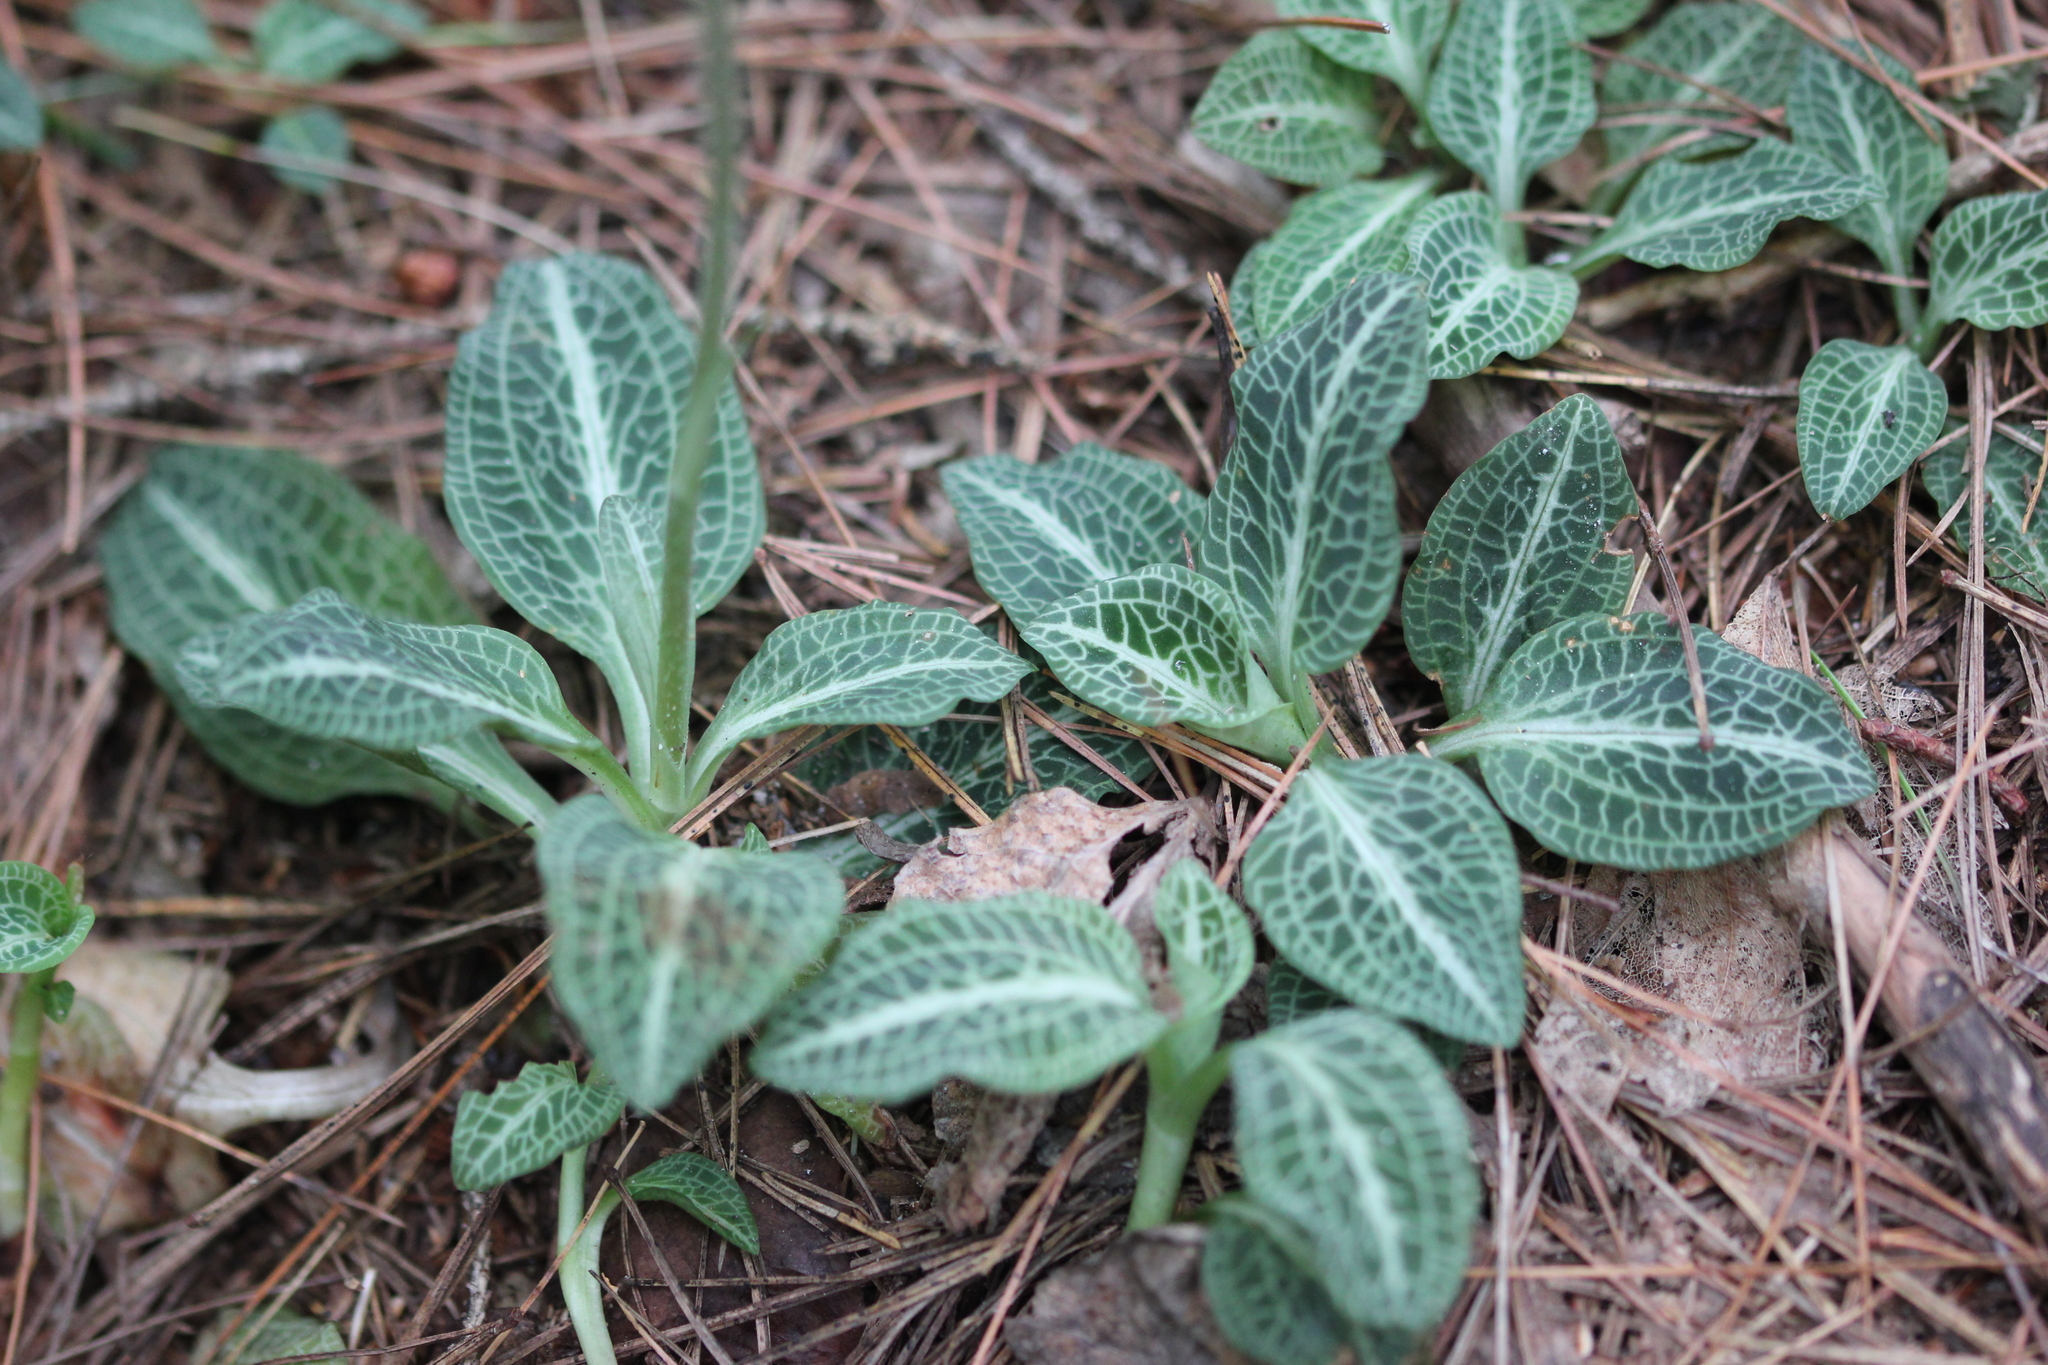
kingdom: Plantae
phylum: Tracheophyta
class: Liliopsida
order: Asparagales
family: Orchidaceae
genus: Goodyera
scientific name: Goodyera pubescens
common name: Downy rattlesnake-plantain
